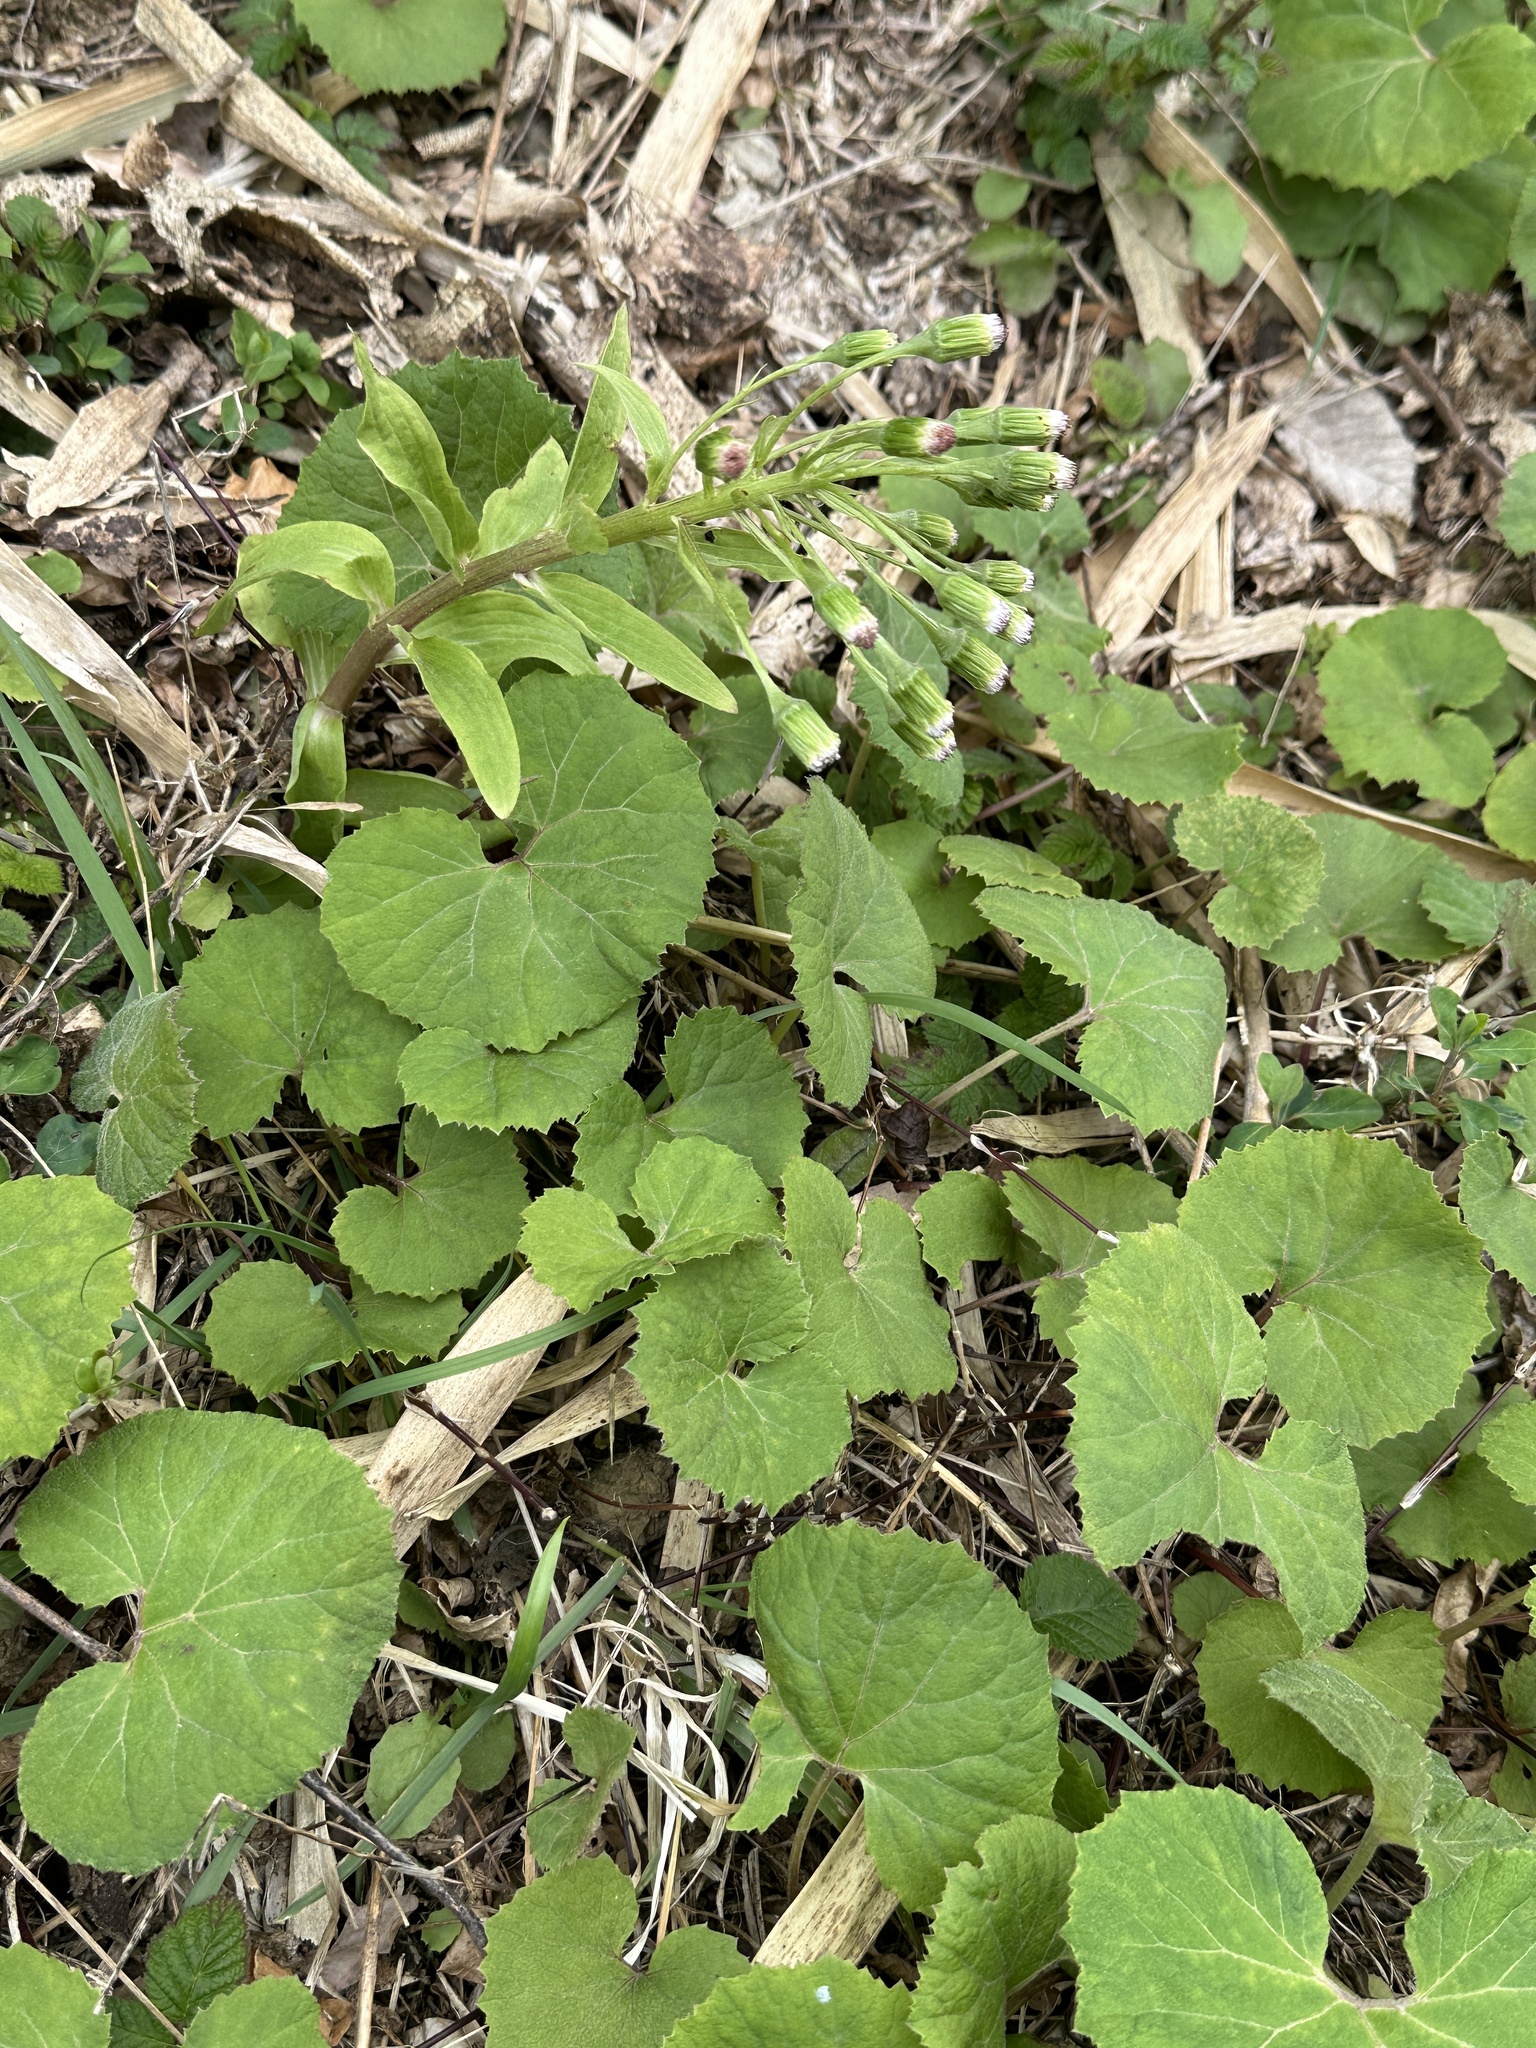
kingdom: Plantae
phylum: Tracheophyta
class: Magnoliopsida
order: Asterales
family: Asteraceae
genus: Petasites
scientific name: Petasites japonicus
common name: Giant butterbur
